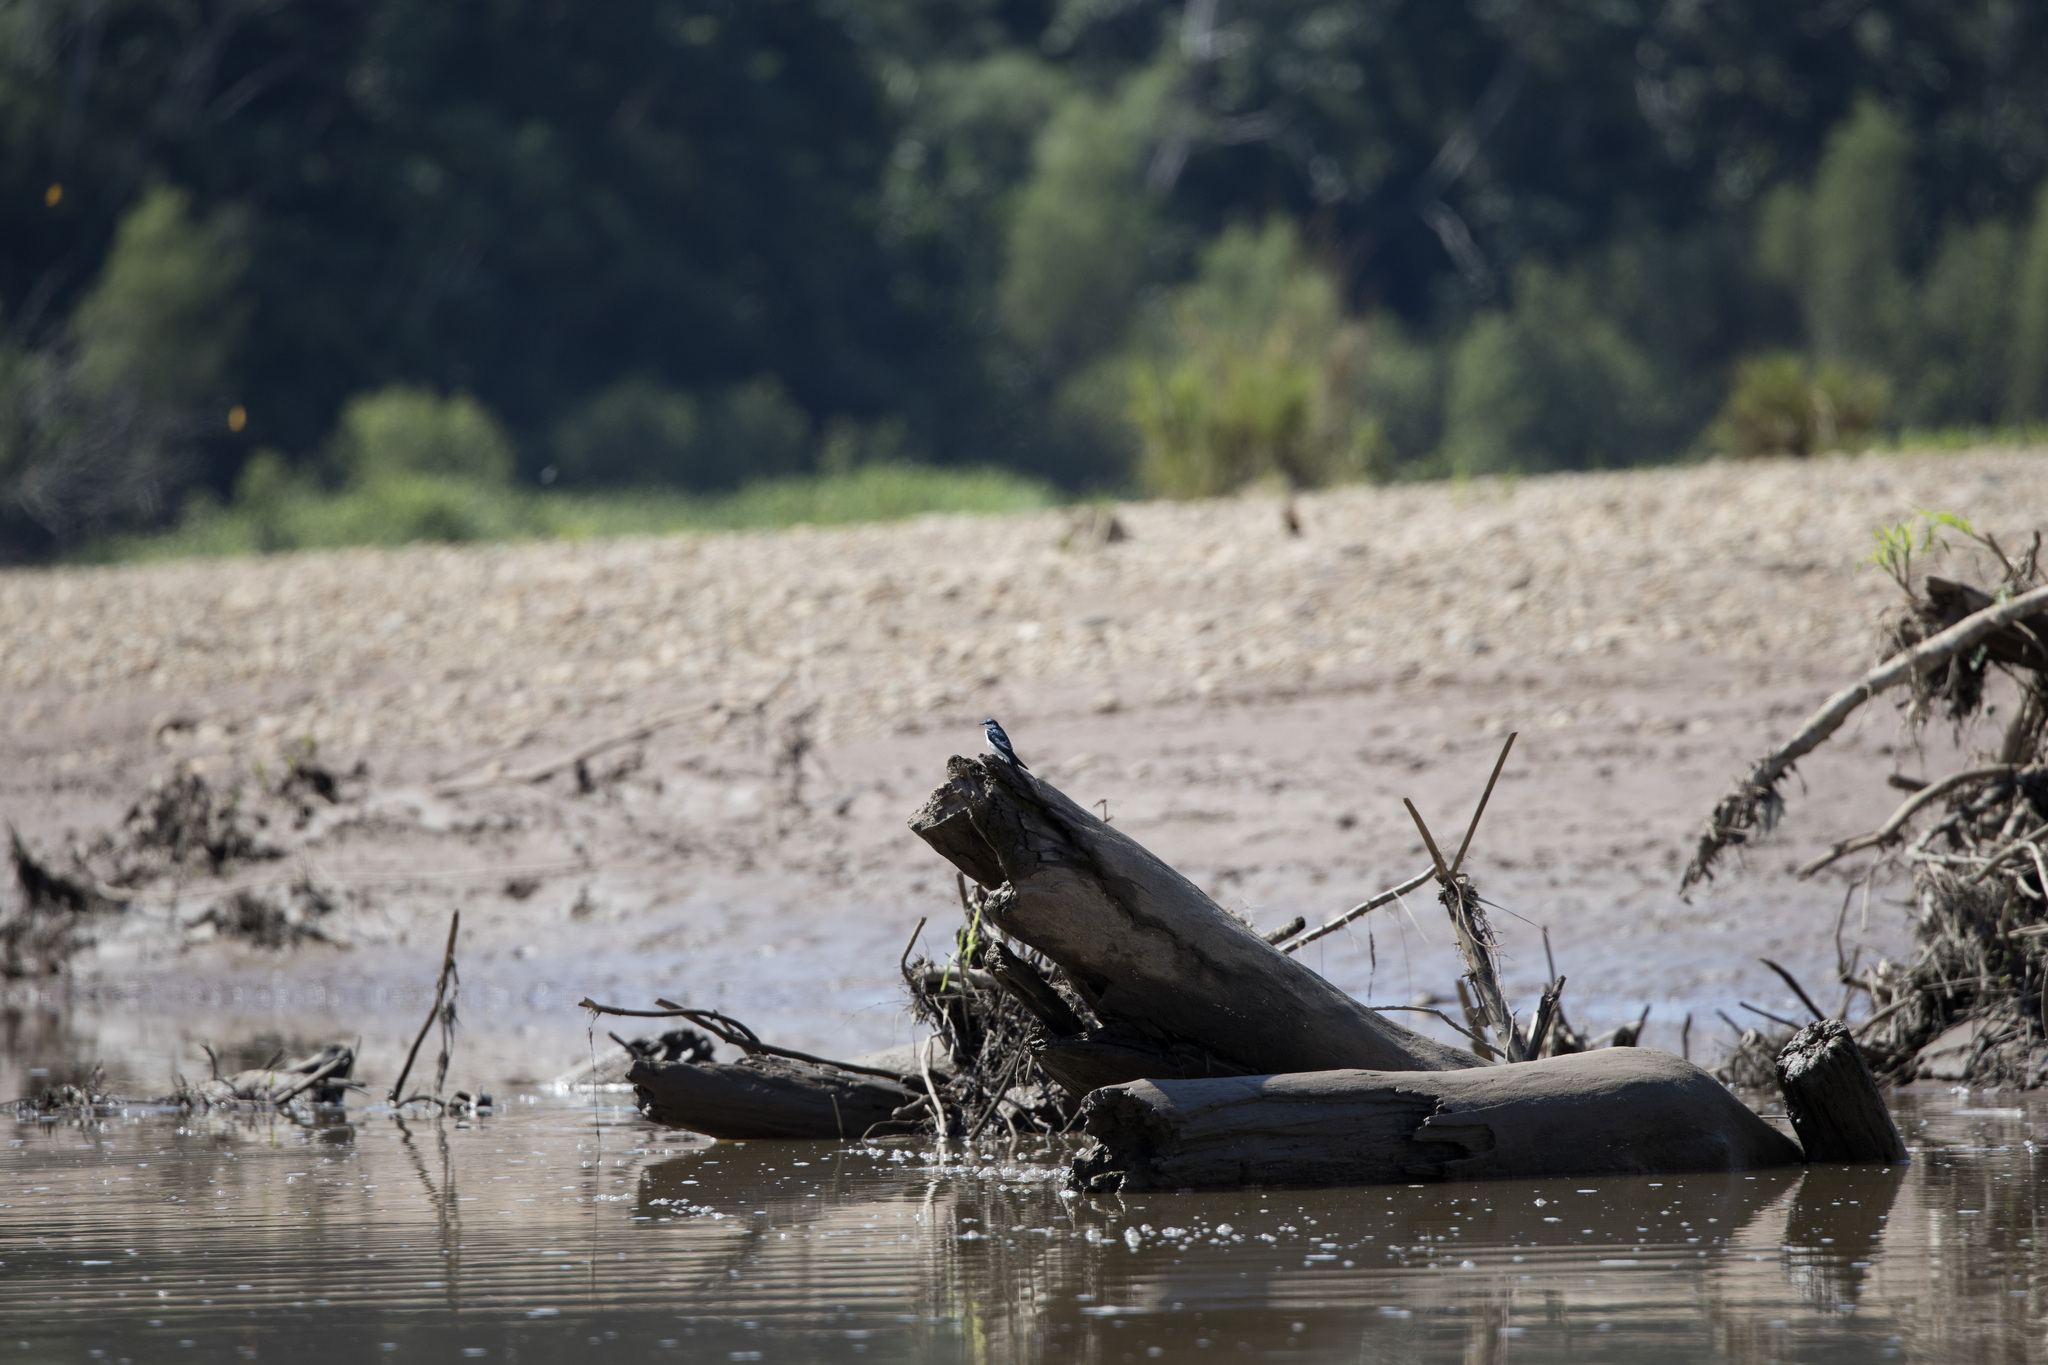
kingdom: Animalia
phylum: Chordata
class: Aves
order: Passeriformes
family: Hirundinidae
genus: Tachycineta
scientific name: Tachycineta albiventer
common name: White-winged swallow
